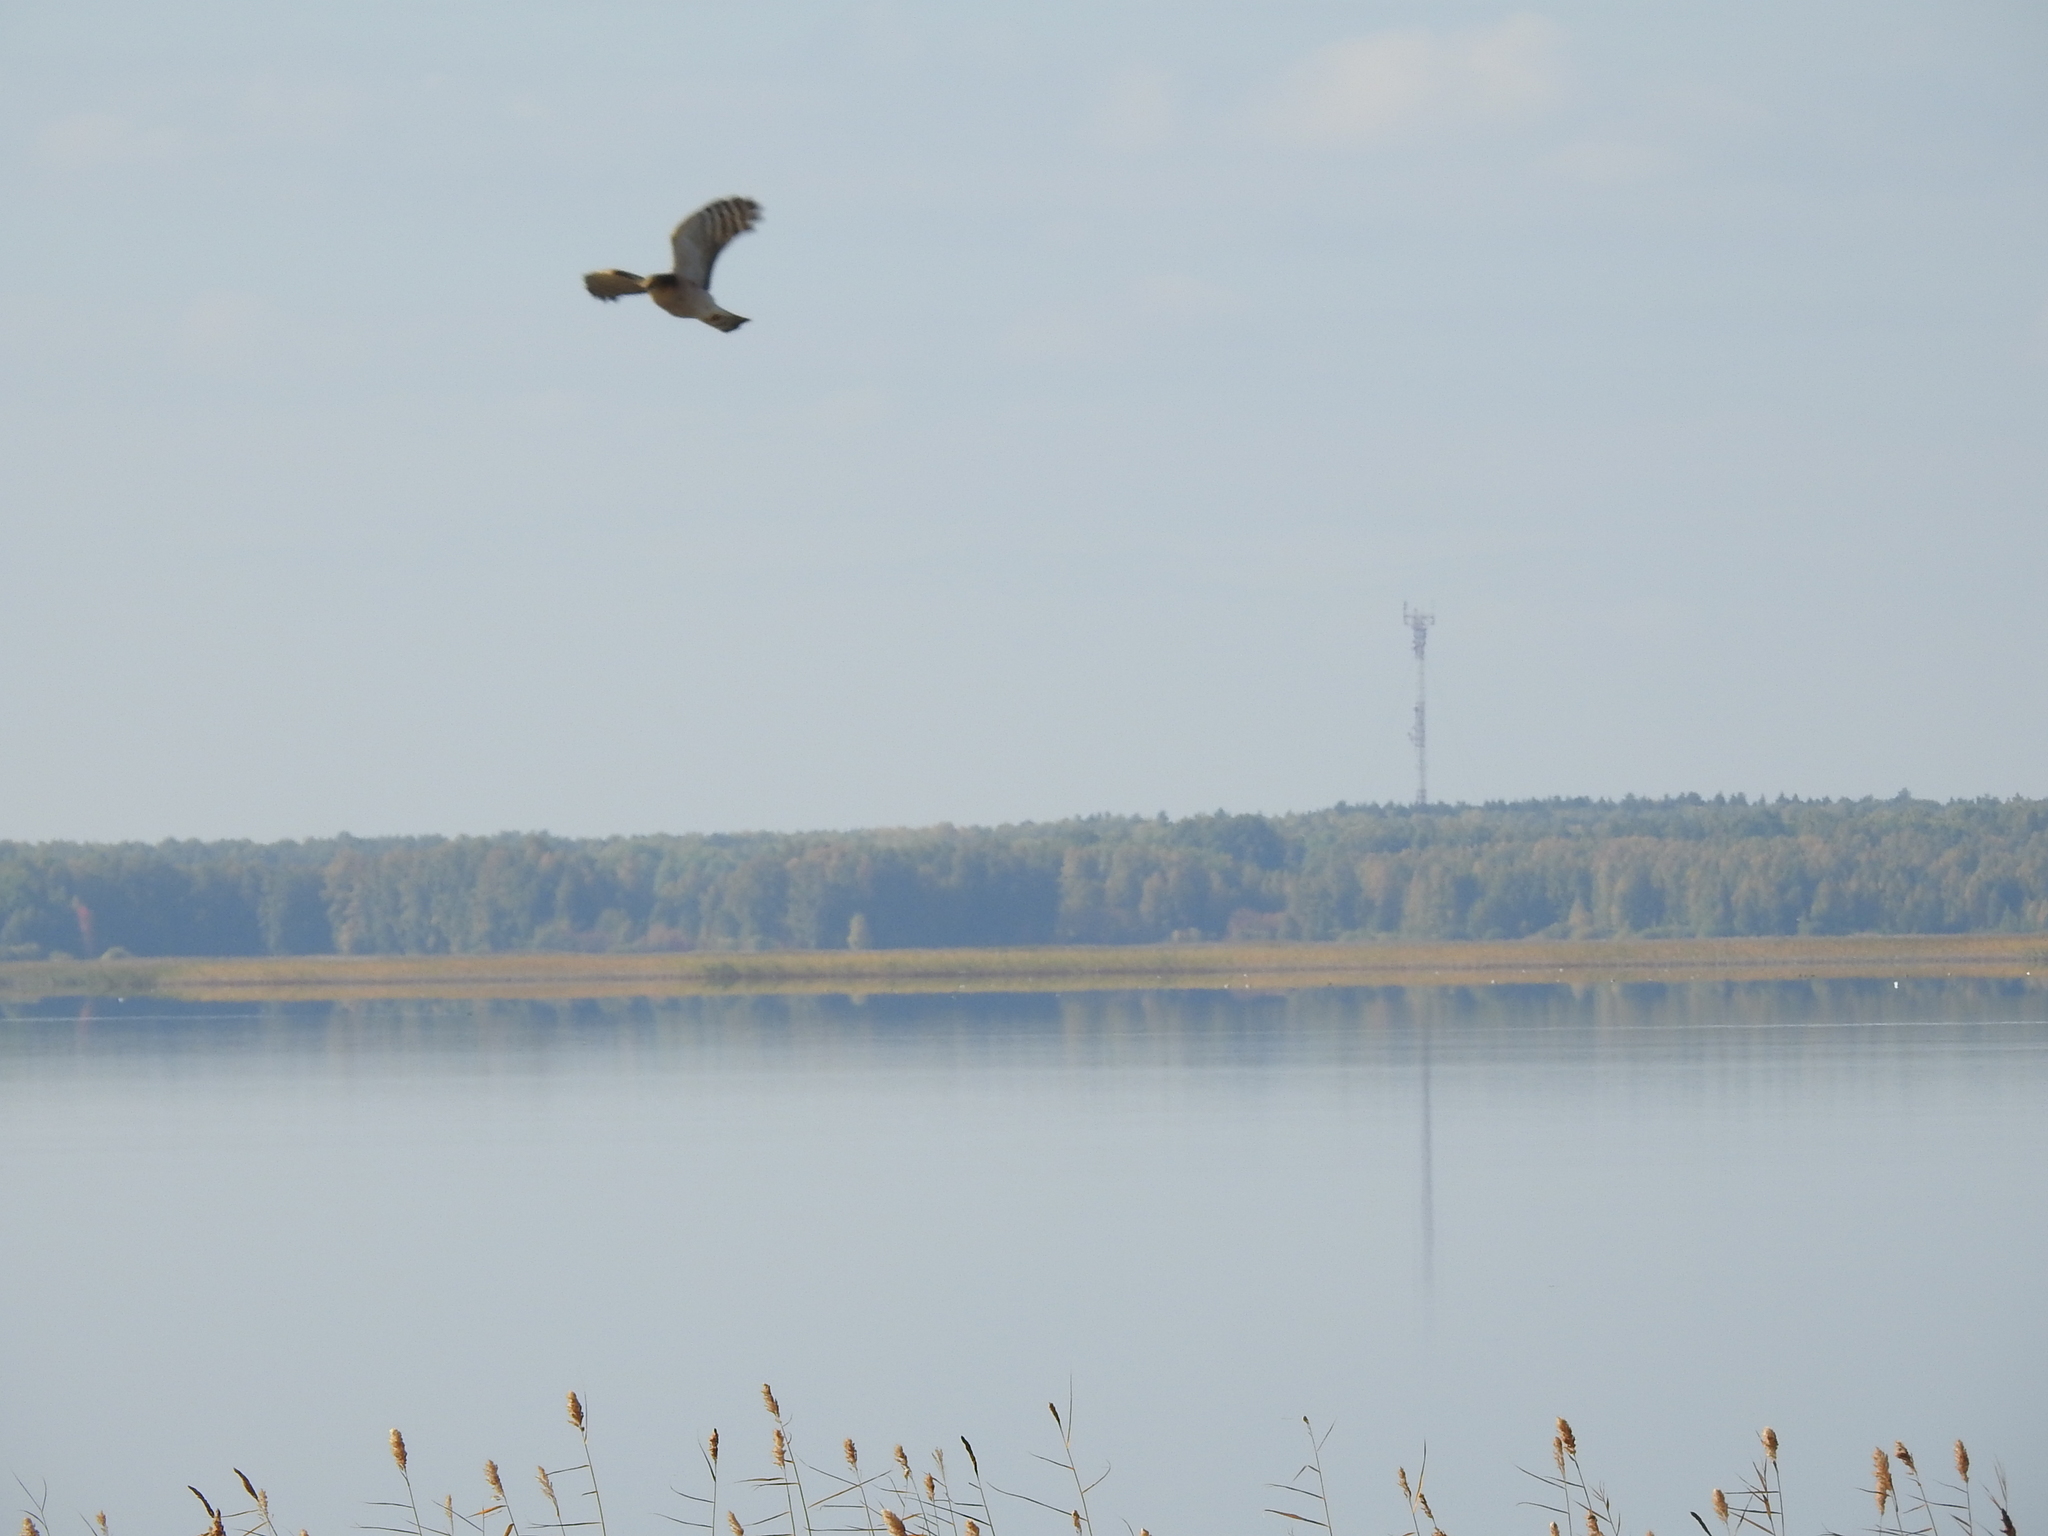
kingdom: Animalia
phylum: Chordata
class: Aves
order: Accipitriformes
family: Accipitridae
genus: Accipiter
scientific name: Accipiter nisus
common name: Eurasian sparrowhawk
